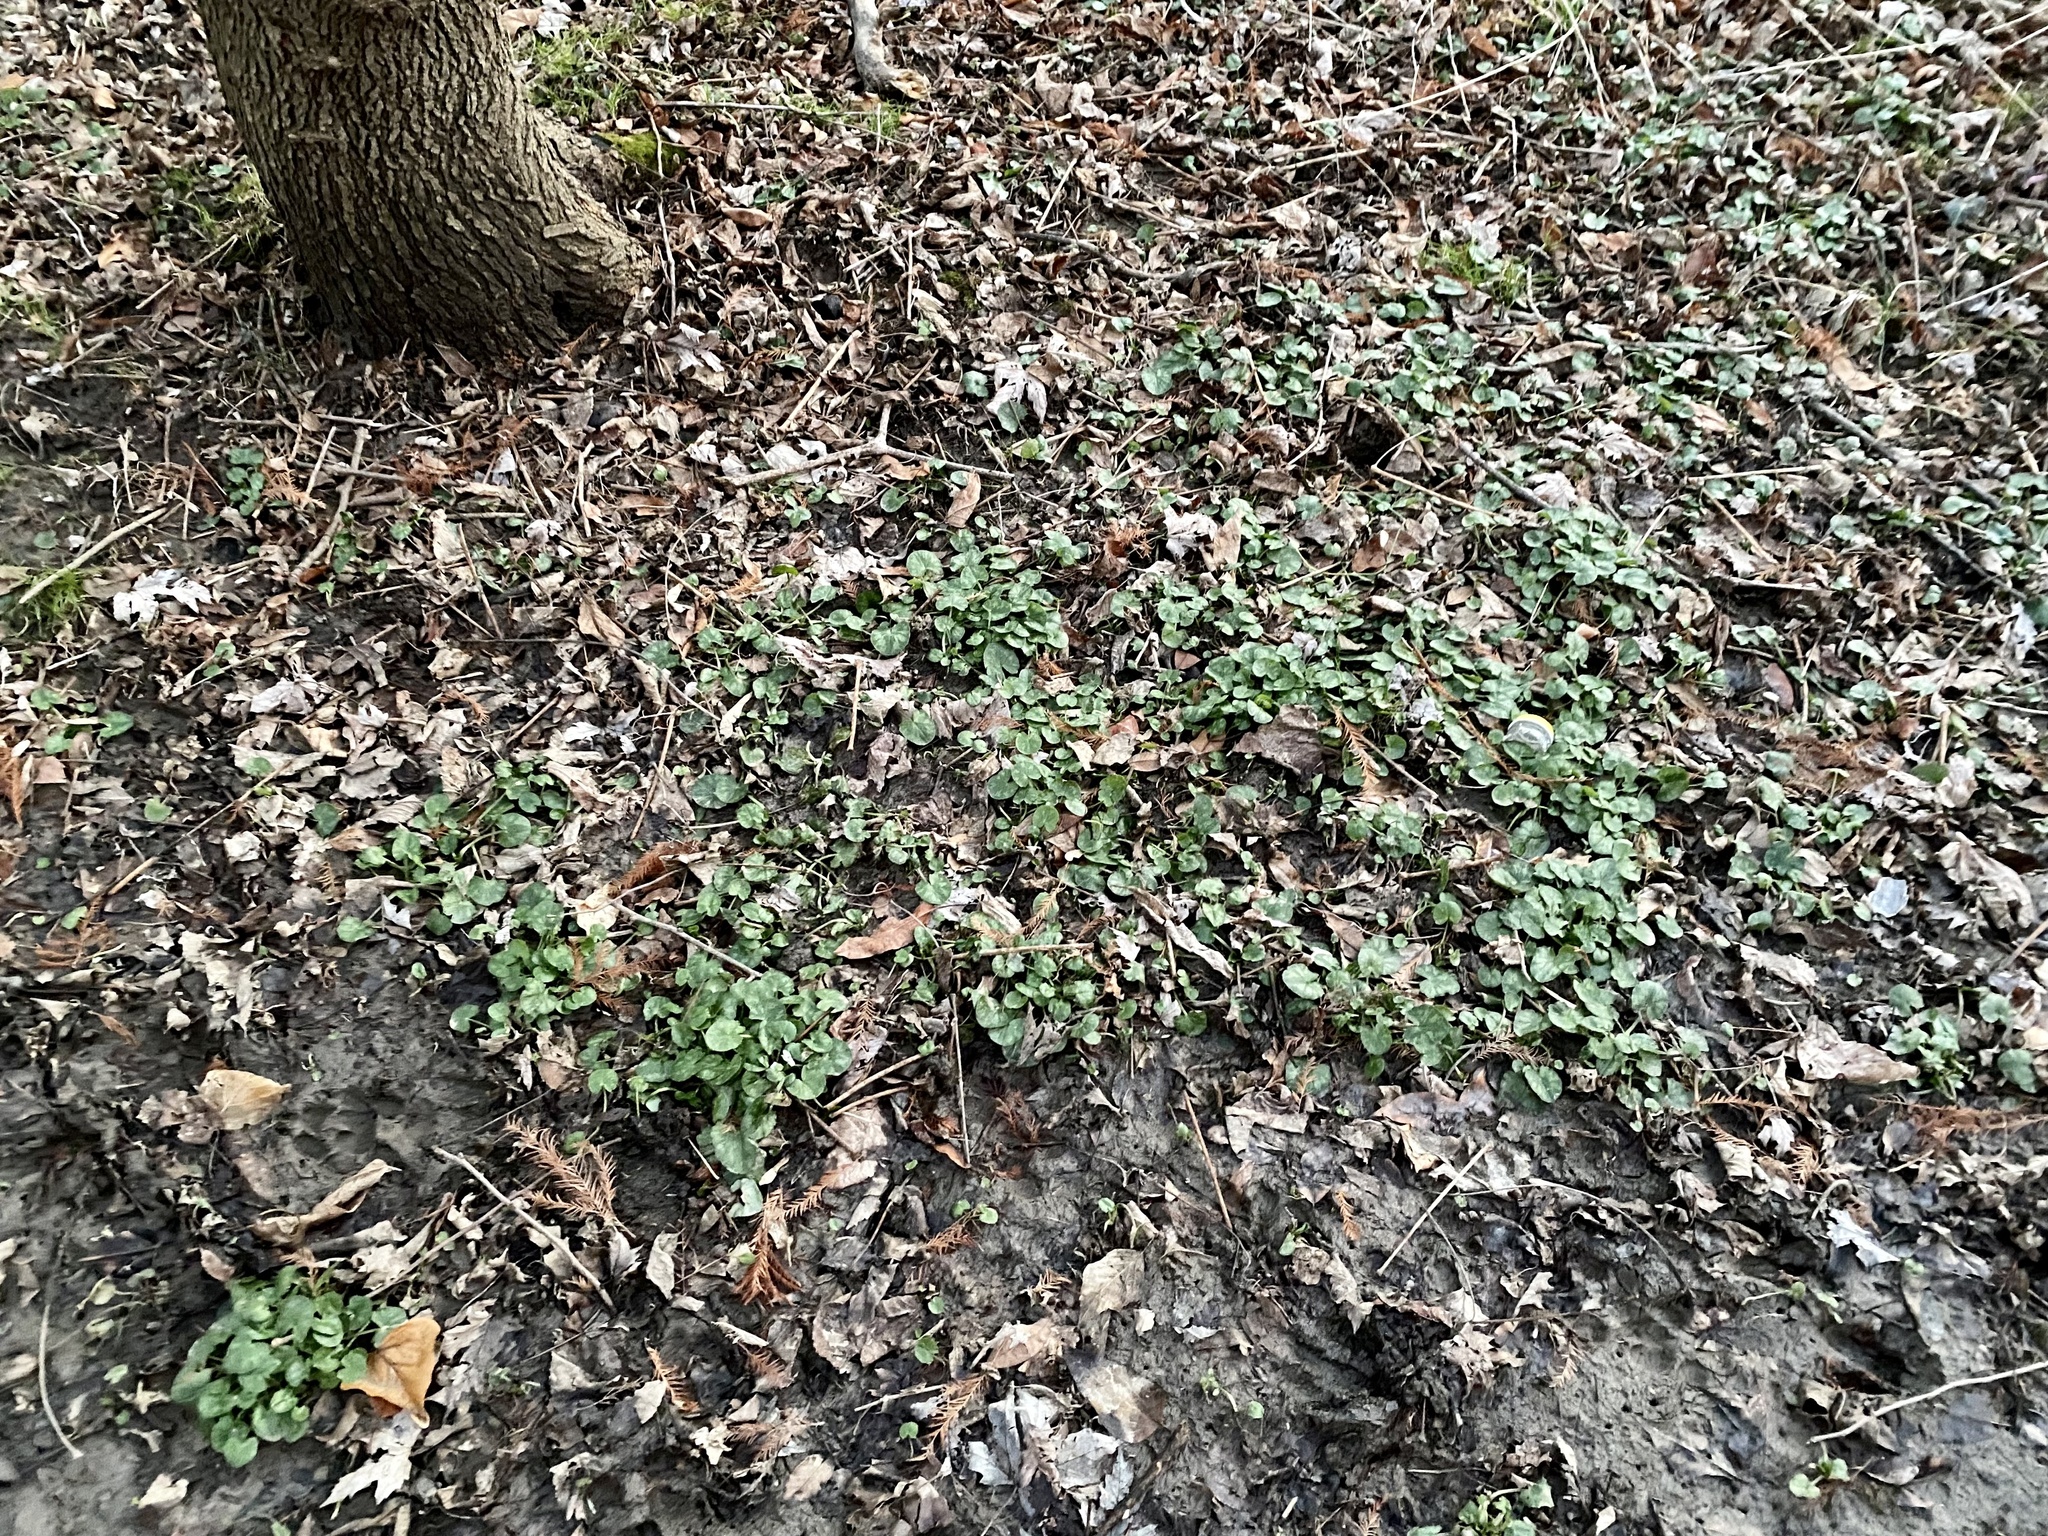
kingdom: Plantae
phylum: Tracheophyta
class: Magnoliopsida
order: Ranunculales
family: Ranunculaceae
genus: Ficaria
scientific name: Ficaria verna
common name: Lesser celandine
